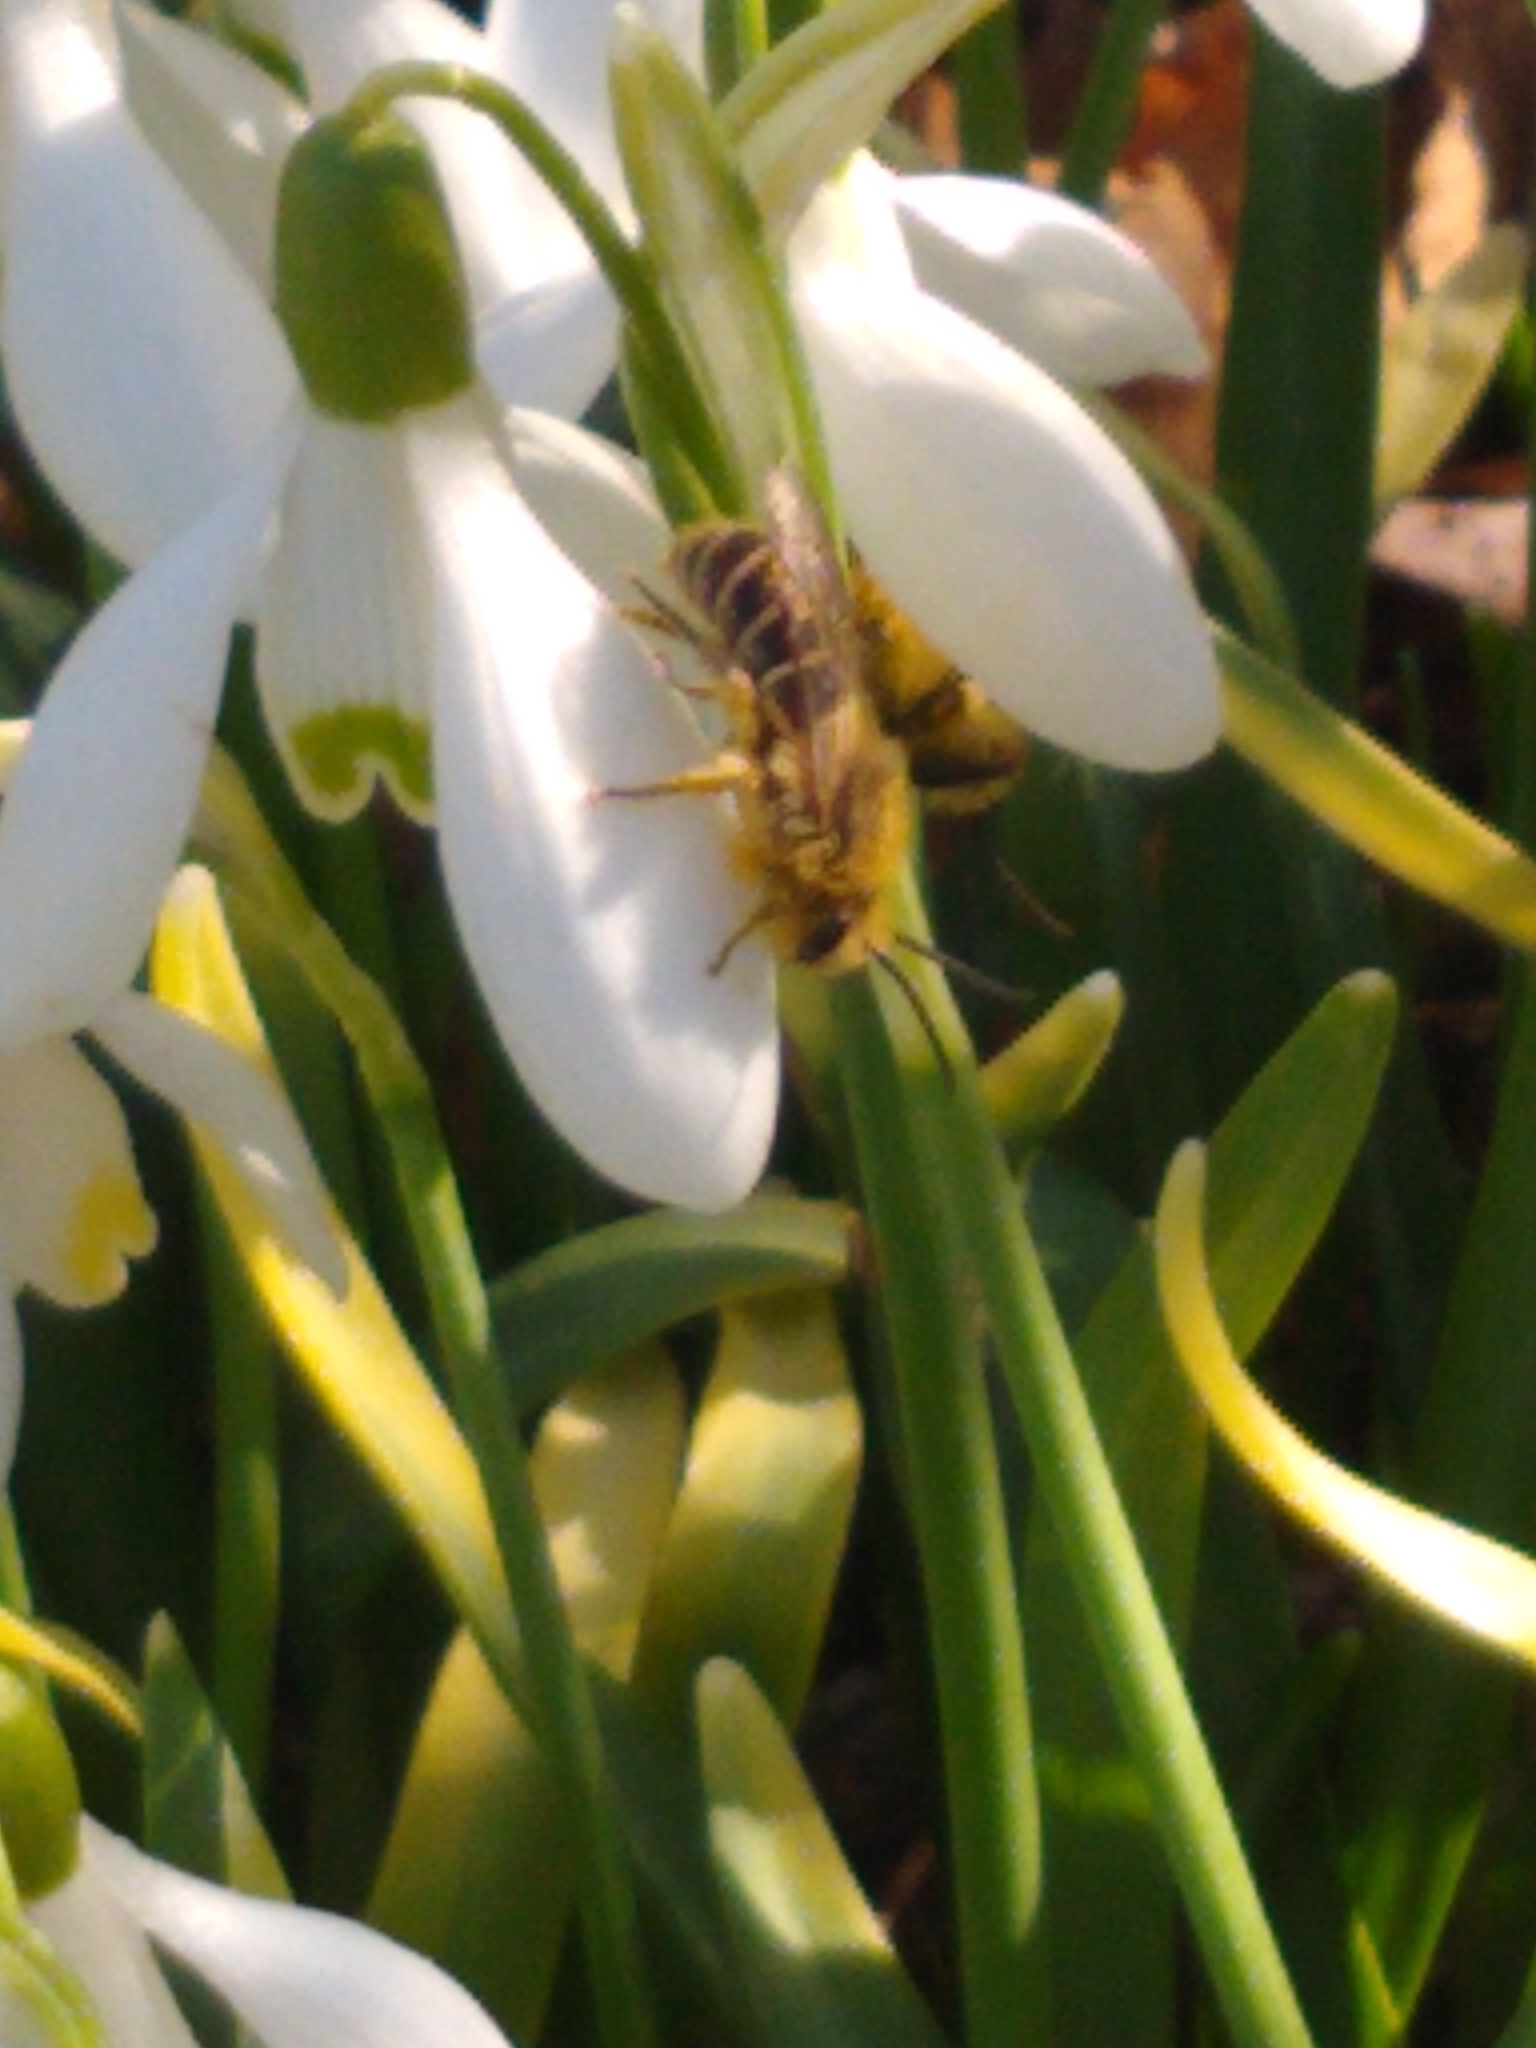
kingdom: Animalia
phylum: Arthropoda
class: Insecta
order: Hymenoptera
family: Colletidae
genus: Colletes
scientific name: Colletes inaequalis
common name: Unequal cellophane bee
